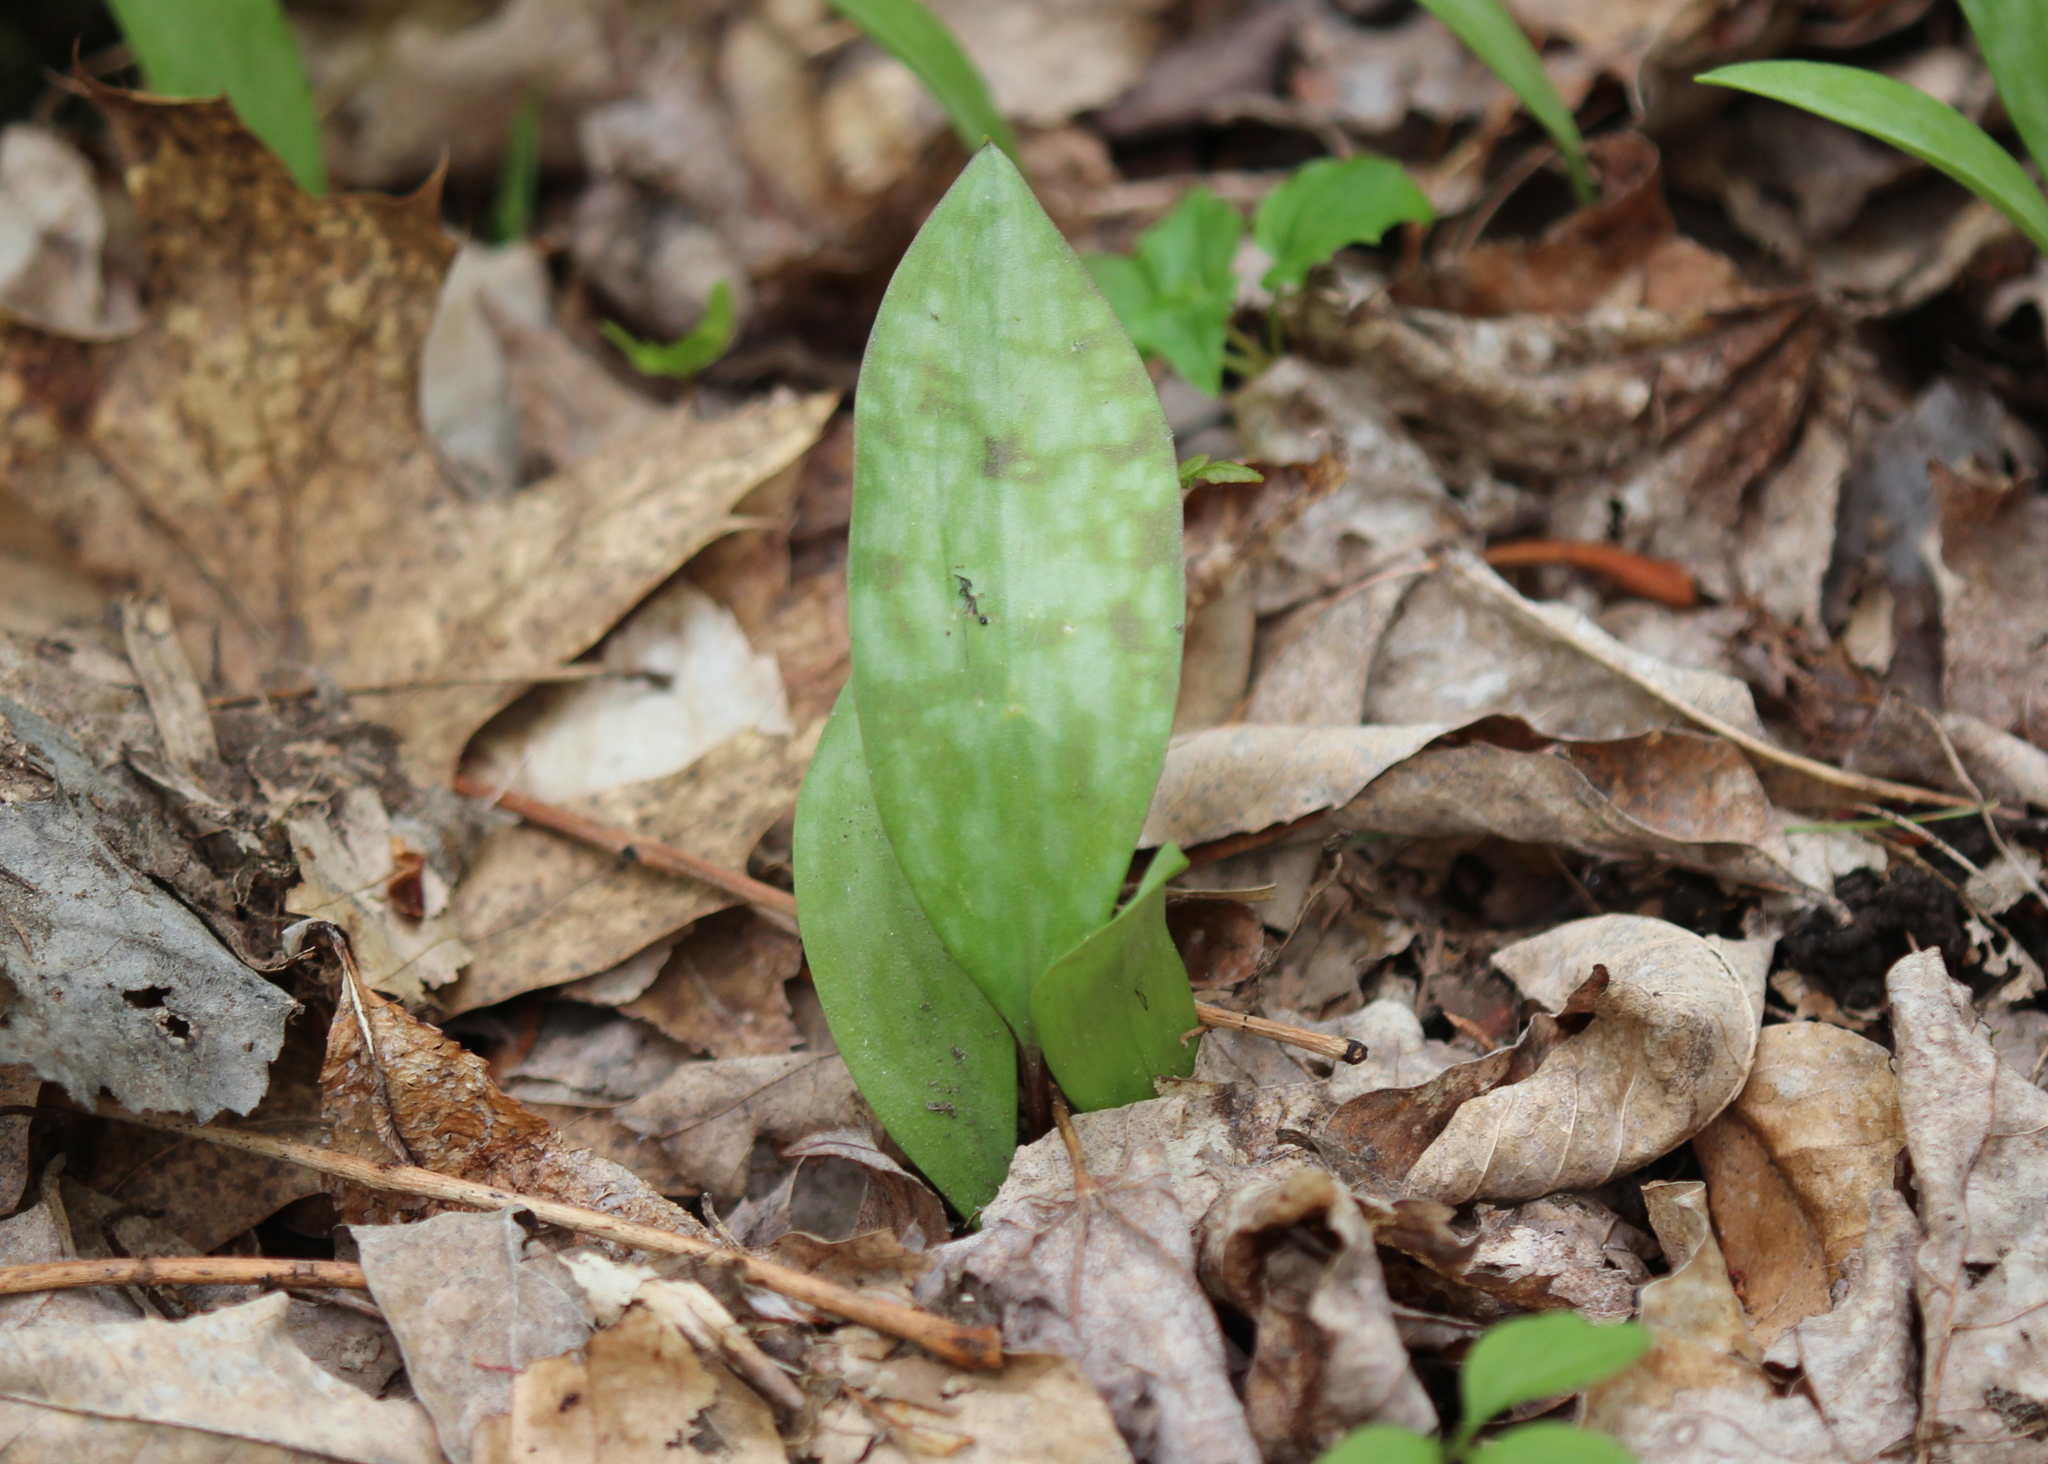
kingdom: Plantae
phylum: Tracheophyta
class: Liliopsida
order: Liliales
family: Liliaceae
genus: Erythronium
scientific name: Erythronium americanum
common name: Yellow adder's-tongue
